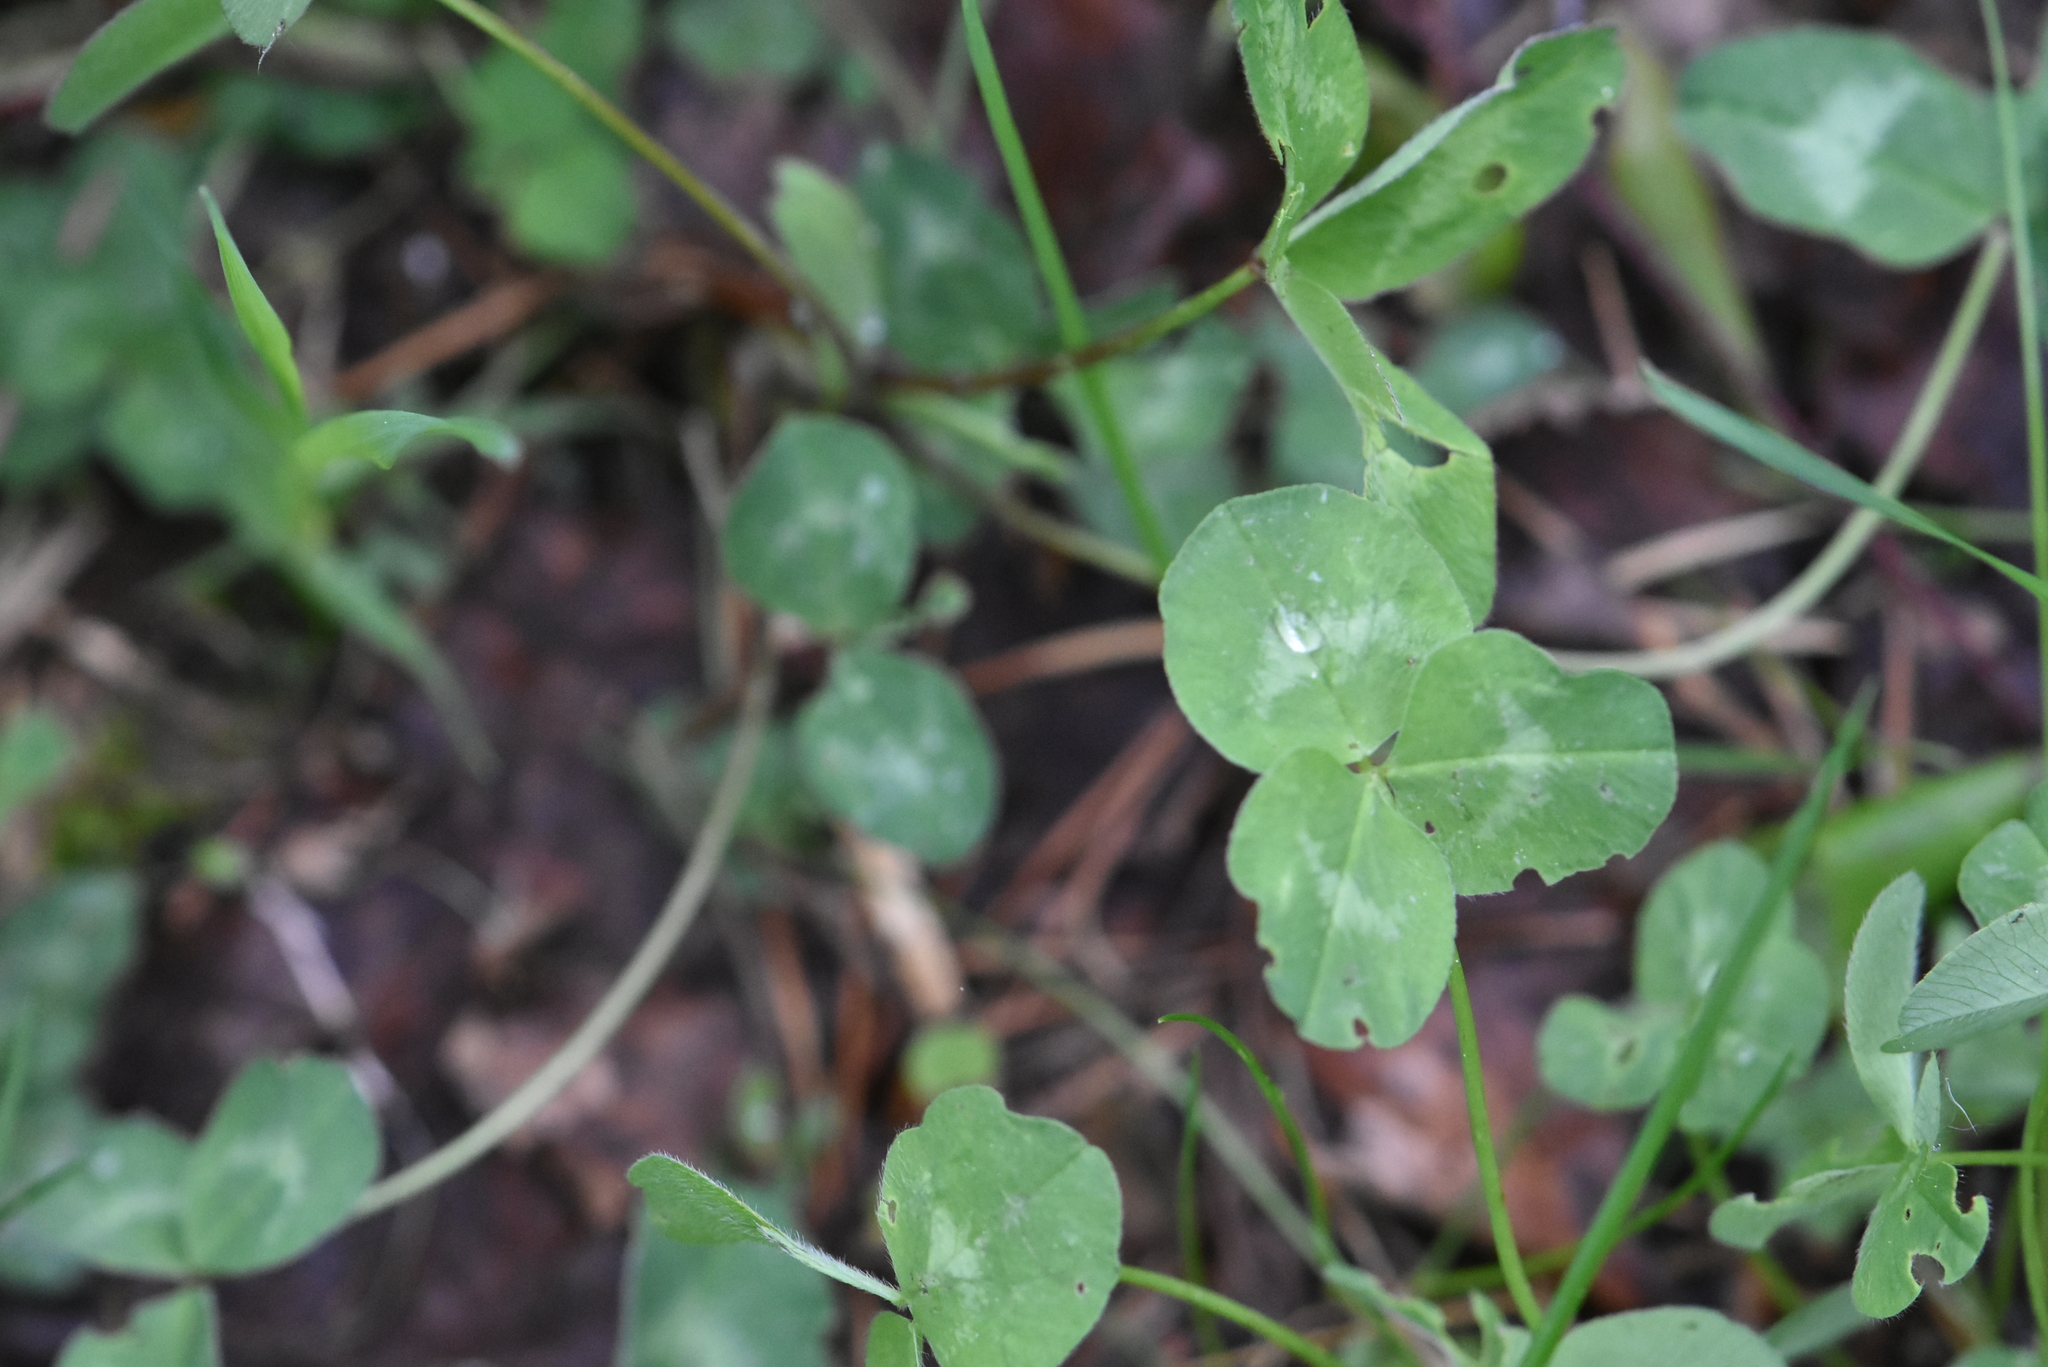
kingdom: Plantae
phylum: Tracheophyta
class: Magnoliopsida
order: Fabales
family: Fabaceae
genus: Trifolium
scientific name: Trifolium pratense
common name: Red clover
